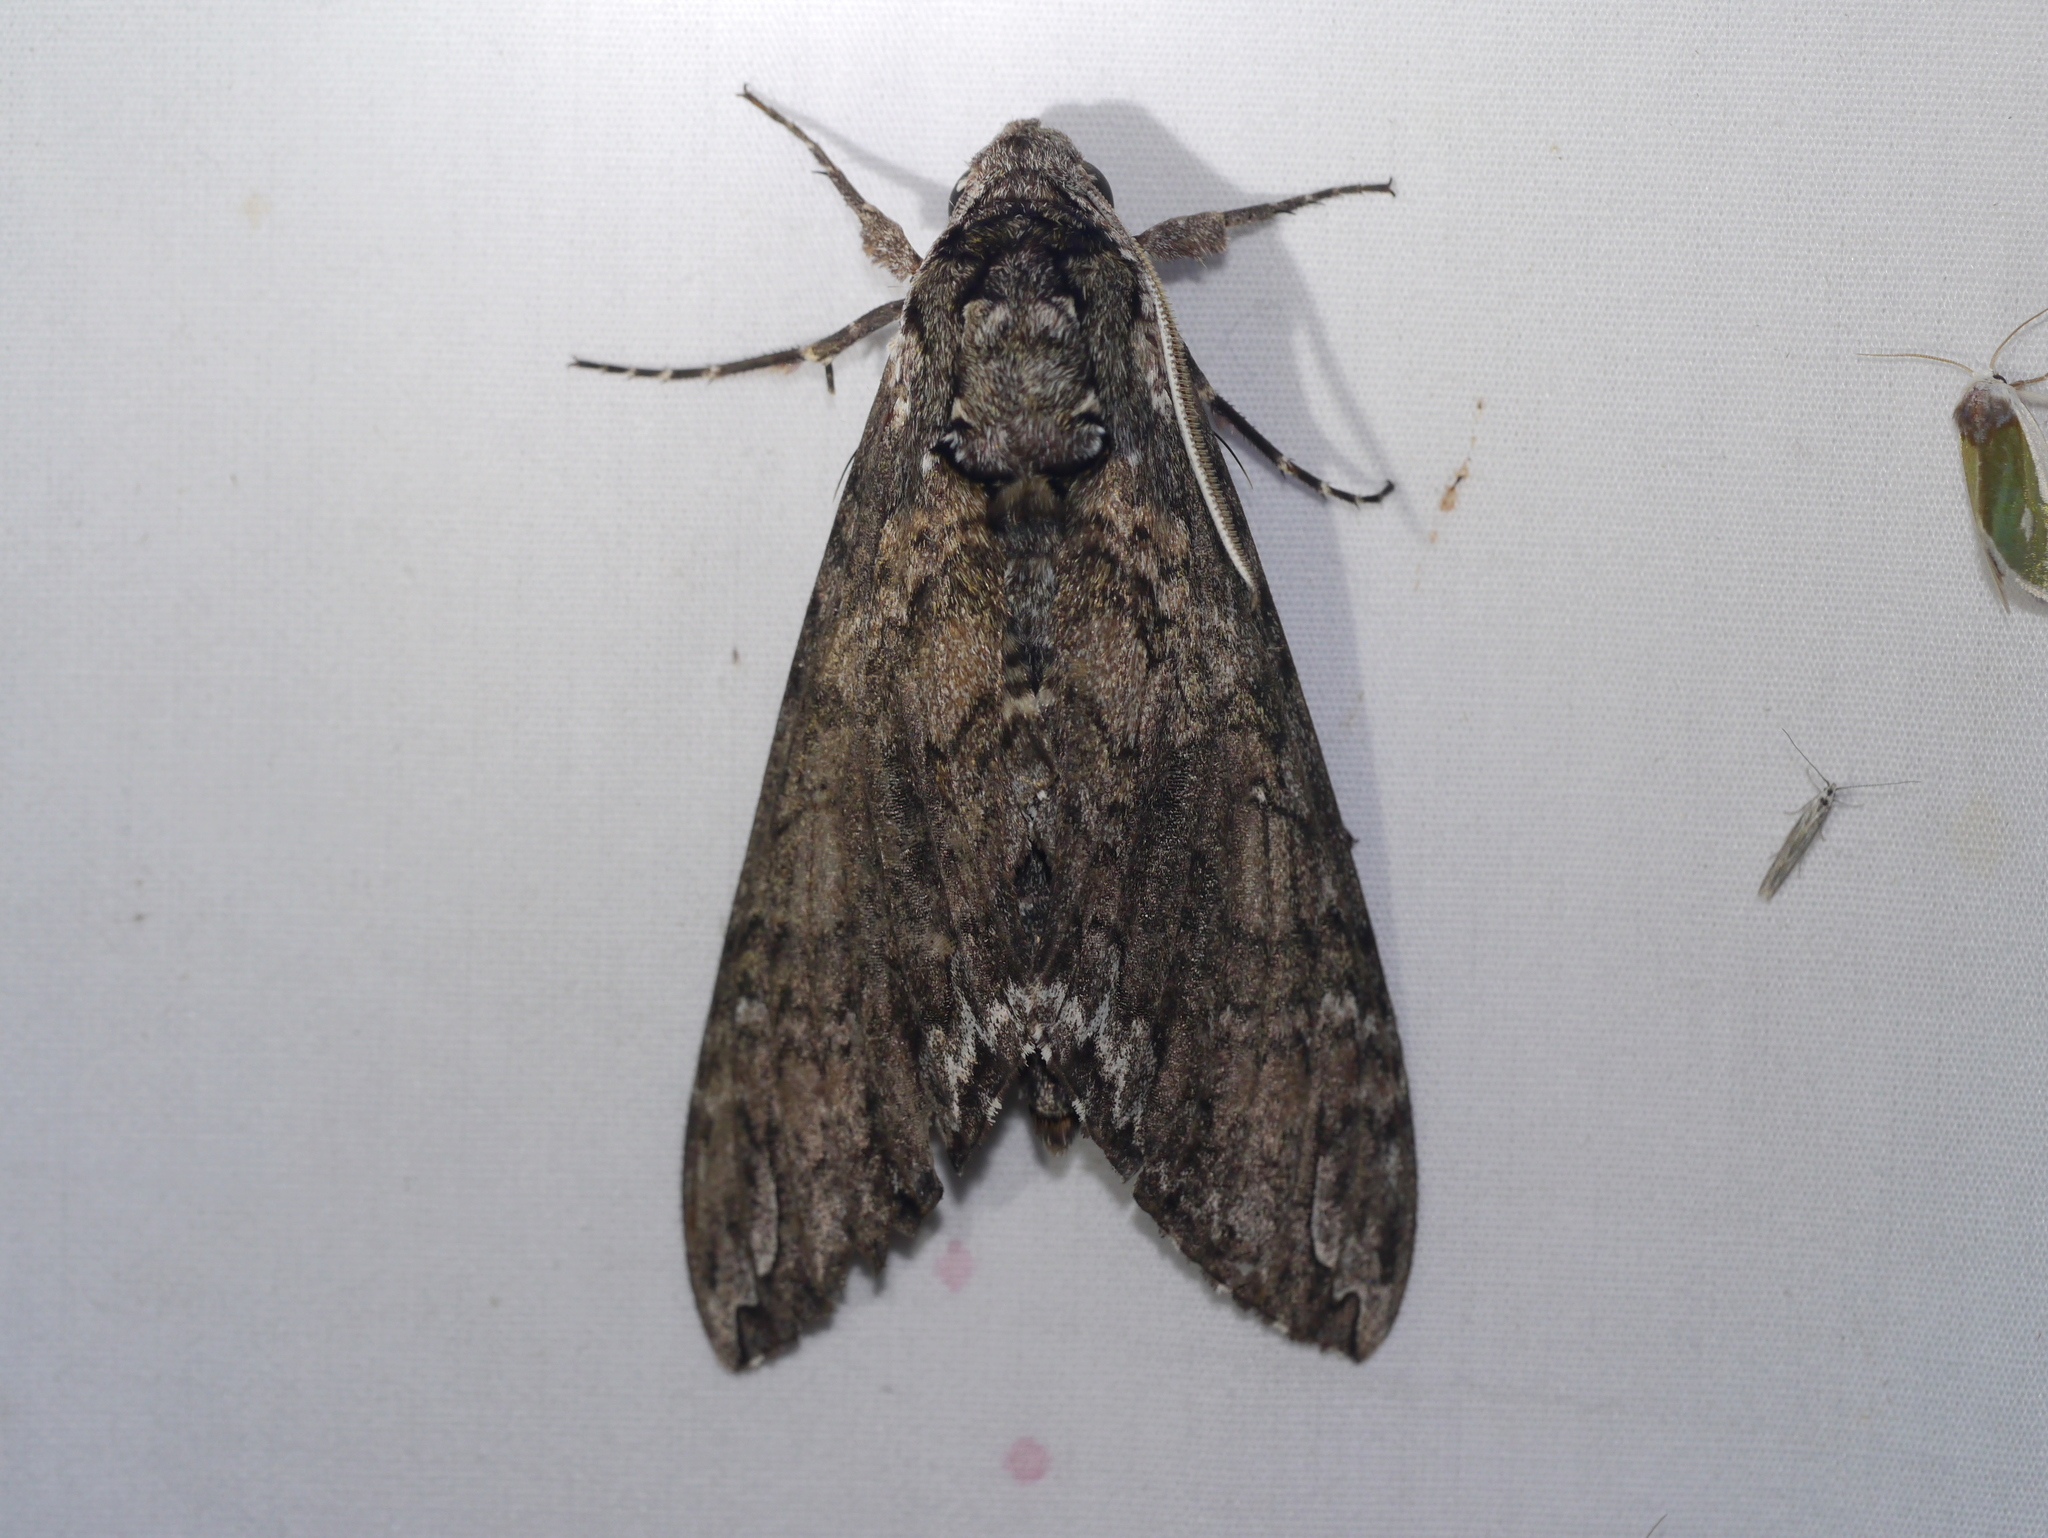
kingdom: Animalia
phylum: Arthropoda
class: Insecta
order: Lepidoptera
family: Sphingidae
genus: Manduca
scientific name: Manduca sexta
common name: Carolina sphinx
